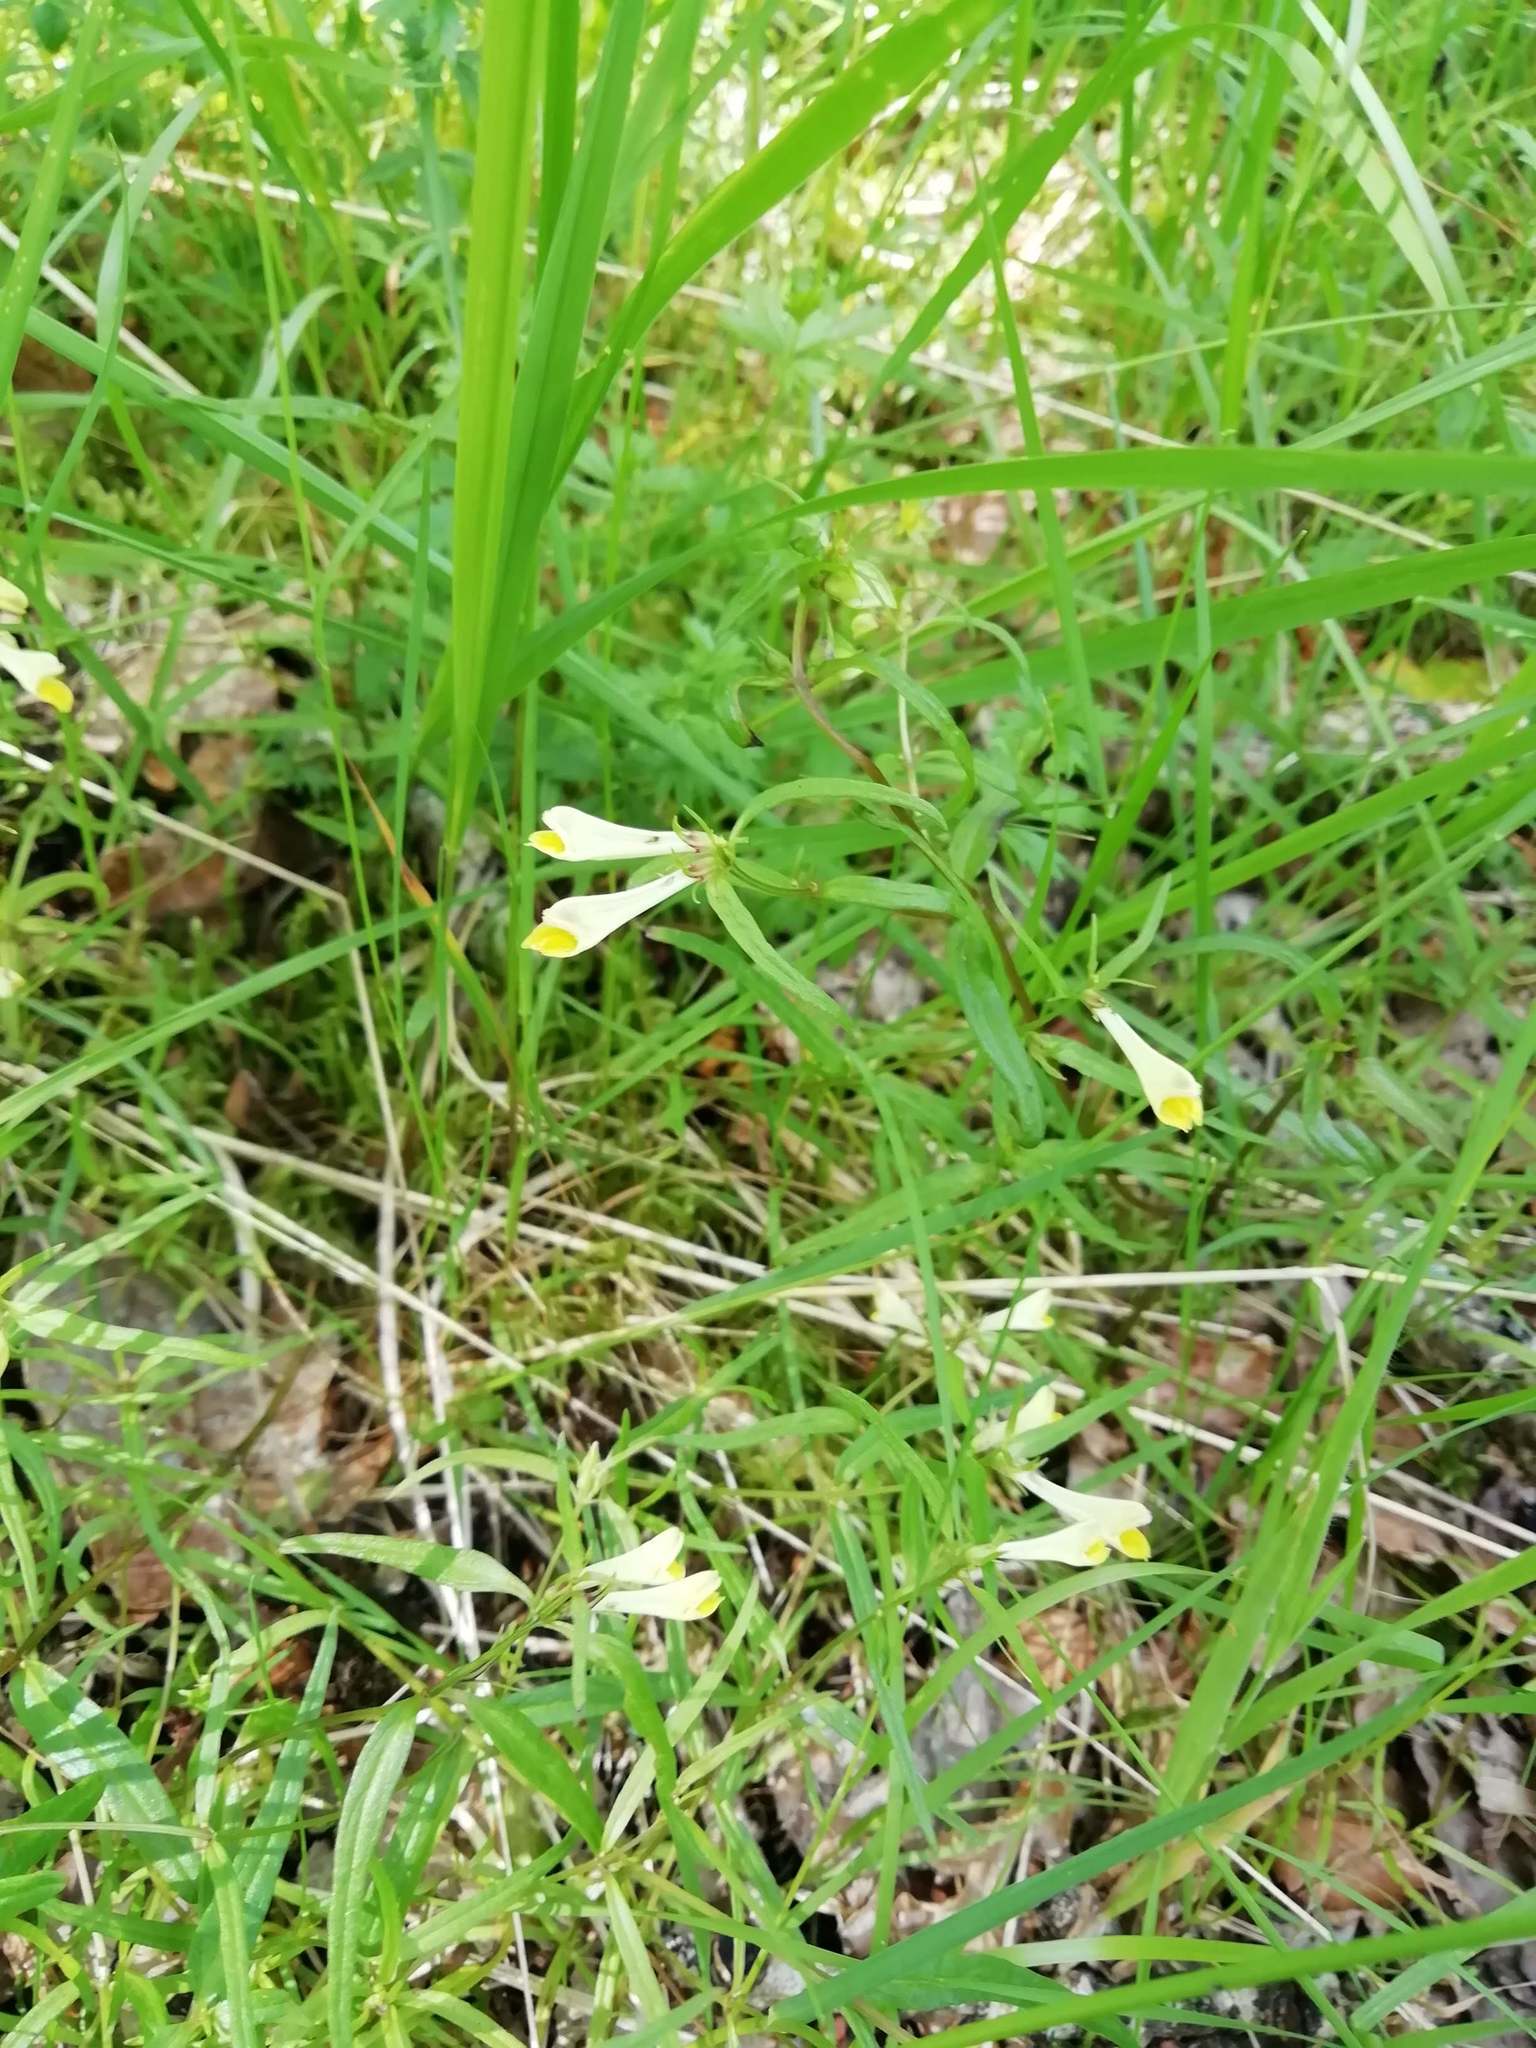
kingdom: Plantae
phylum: Tracheophyta
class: Magnoliopsida
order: Lamiales
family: Orobanchaceae
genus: Melampyrum
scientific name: Melampyrum pratense
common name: Common cow-wheat
